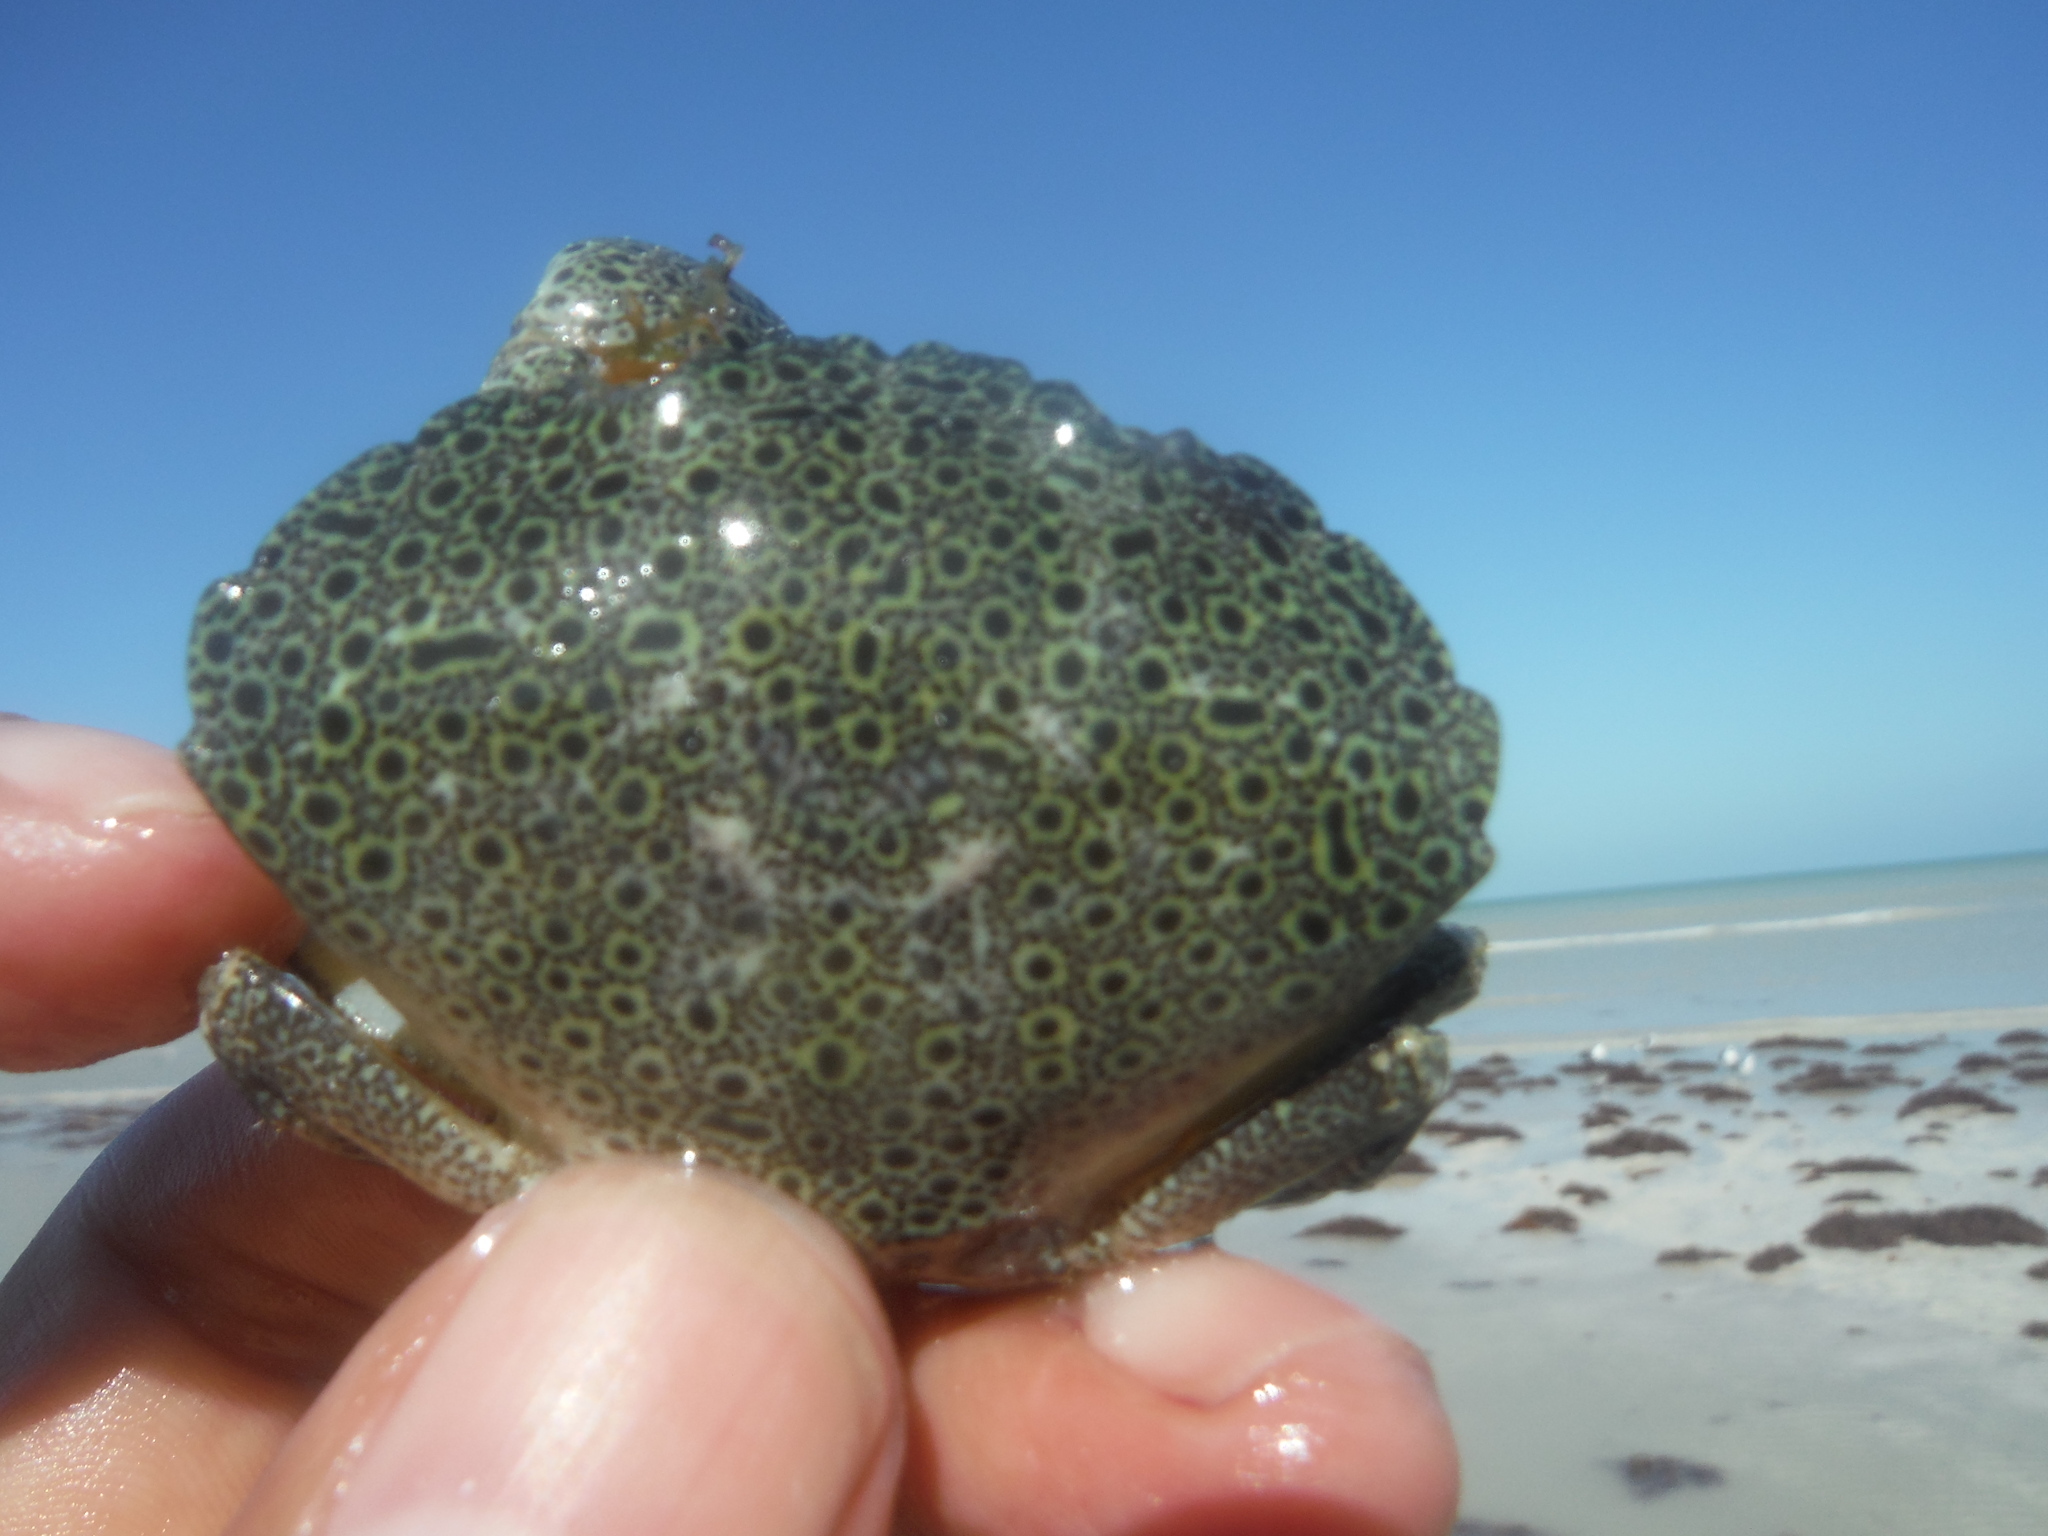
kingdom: Animalia
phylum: Arthropoda
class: Malacostraca
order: Decapoda
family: Menippidae
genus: Menippe
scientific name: Menippe mercenaria
